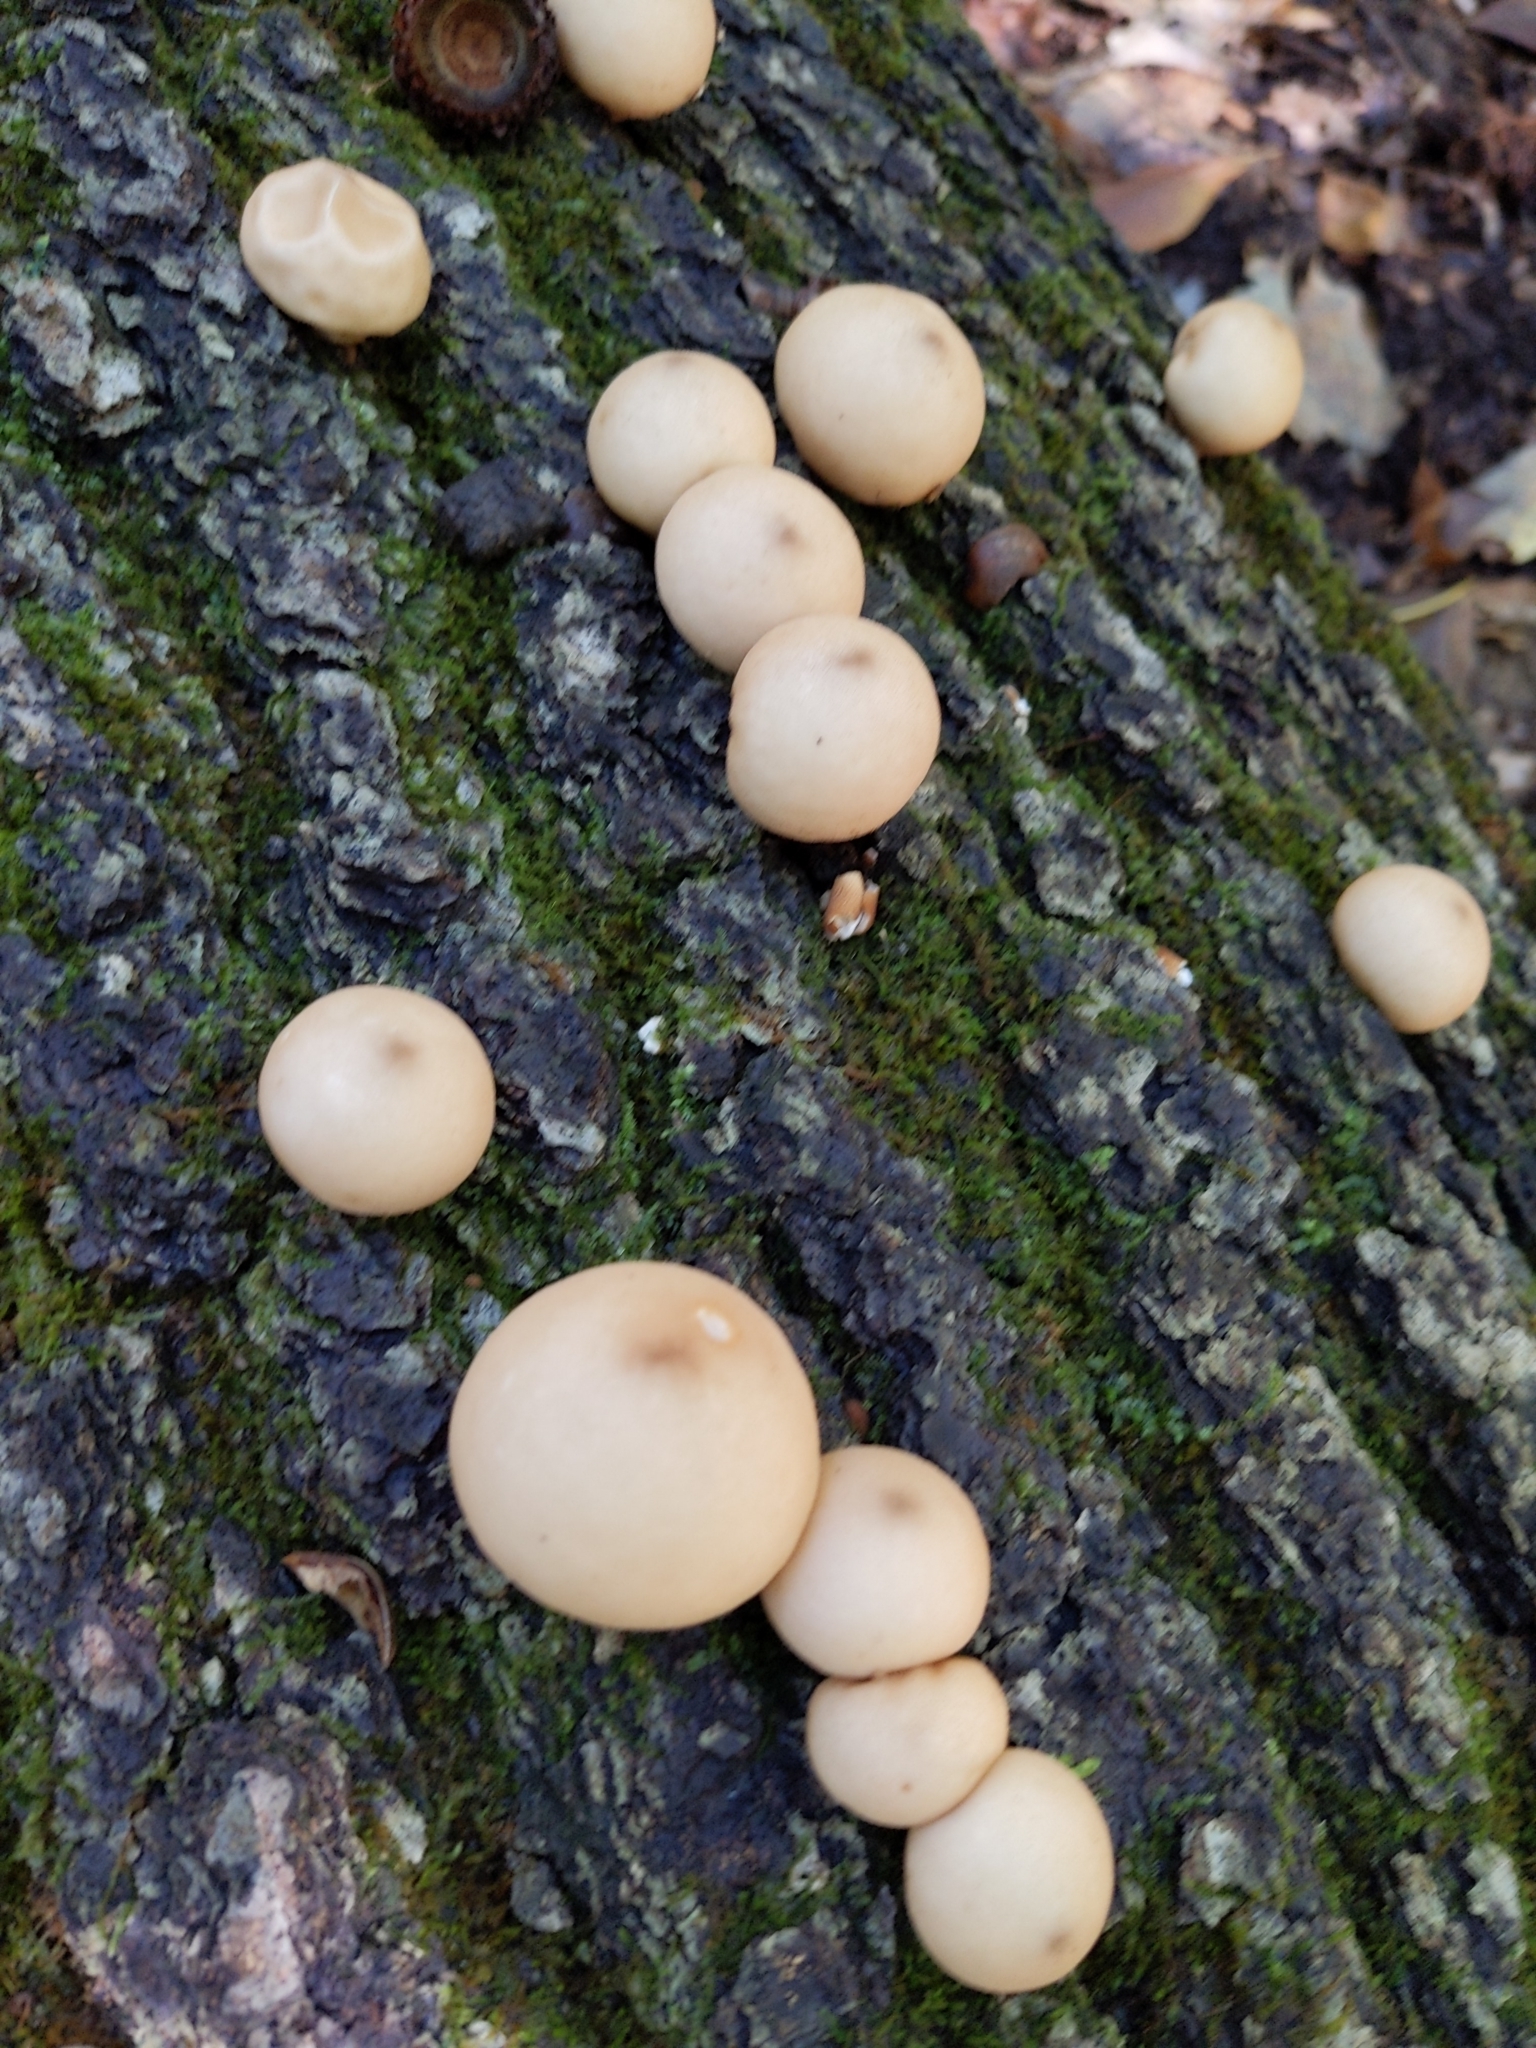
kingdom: Fungi
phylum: Basidiomycota
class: Agaricomycetes
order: Agaricales
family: Lycoperdaceae
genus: Apioperdon
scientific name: Apioperdon pyriforme
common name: Pear-shaped puffball
